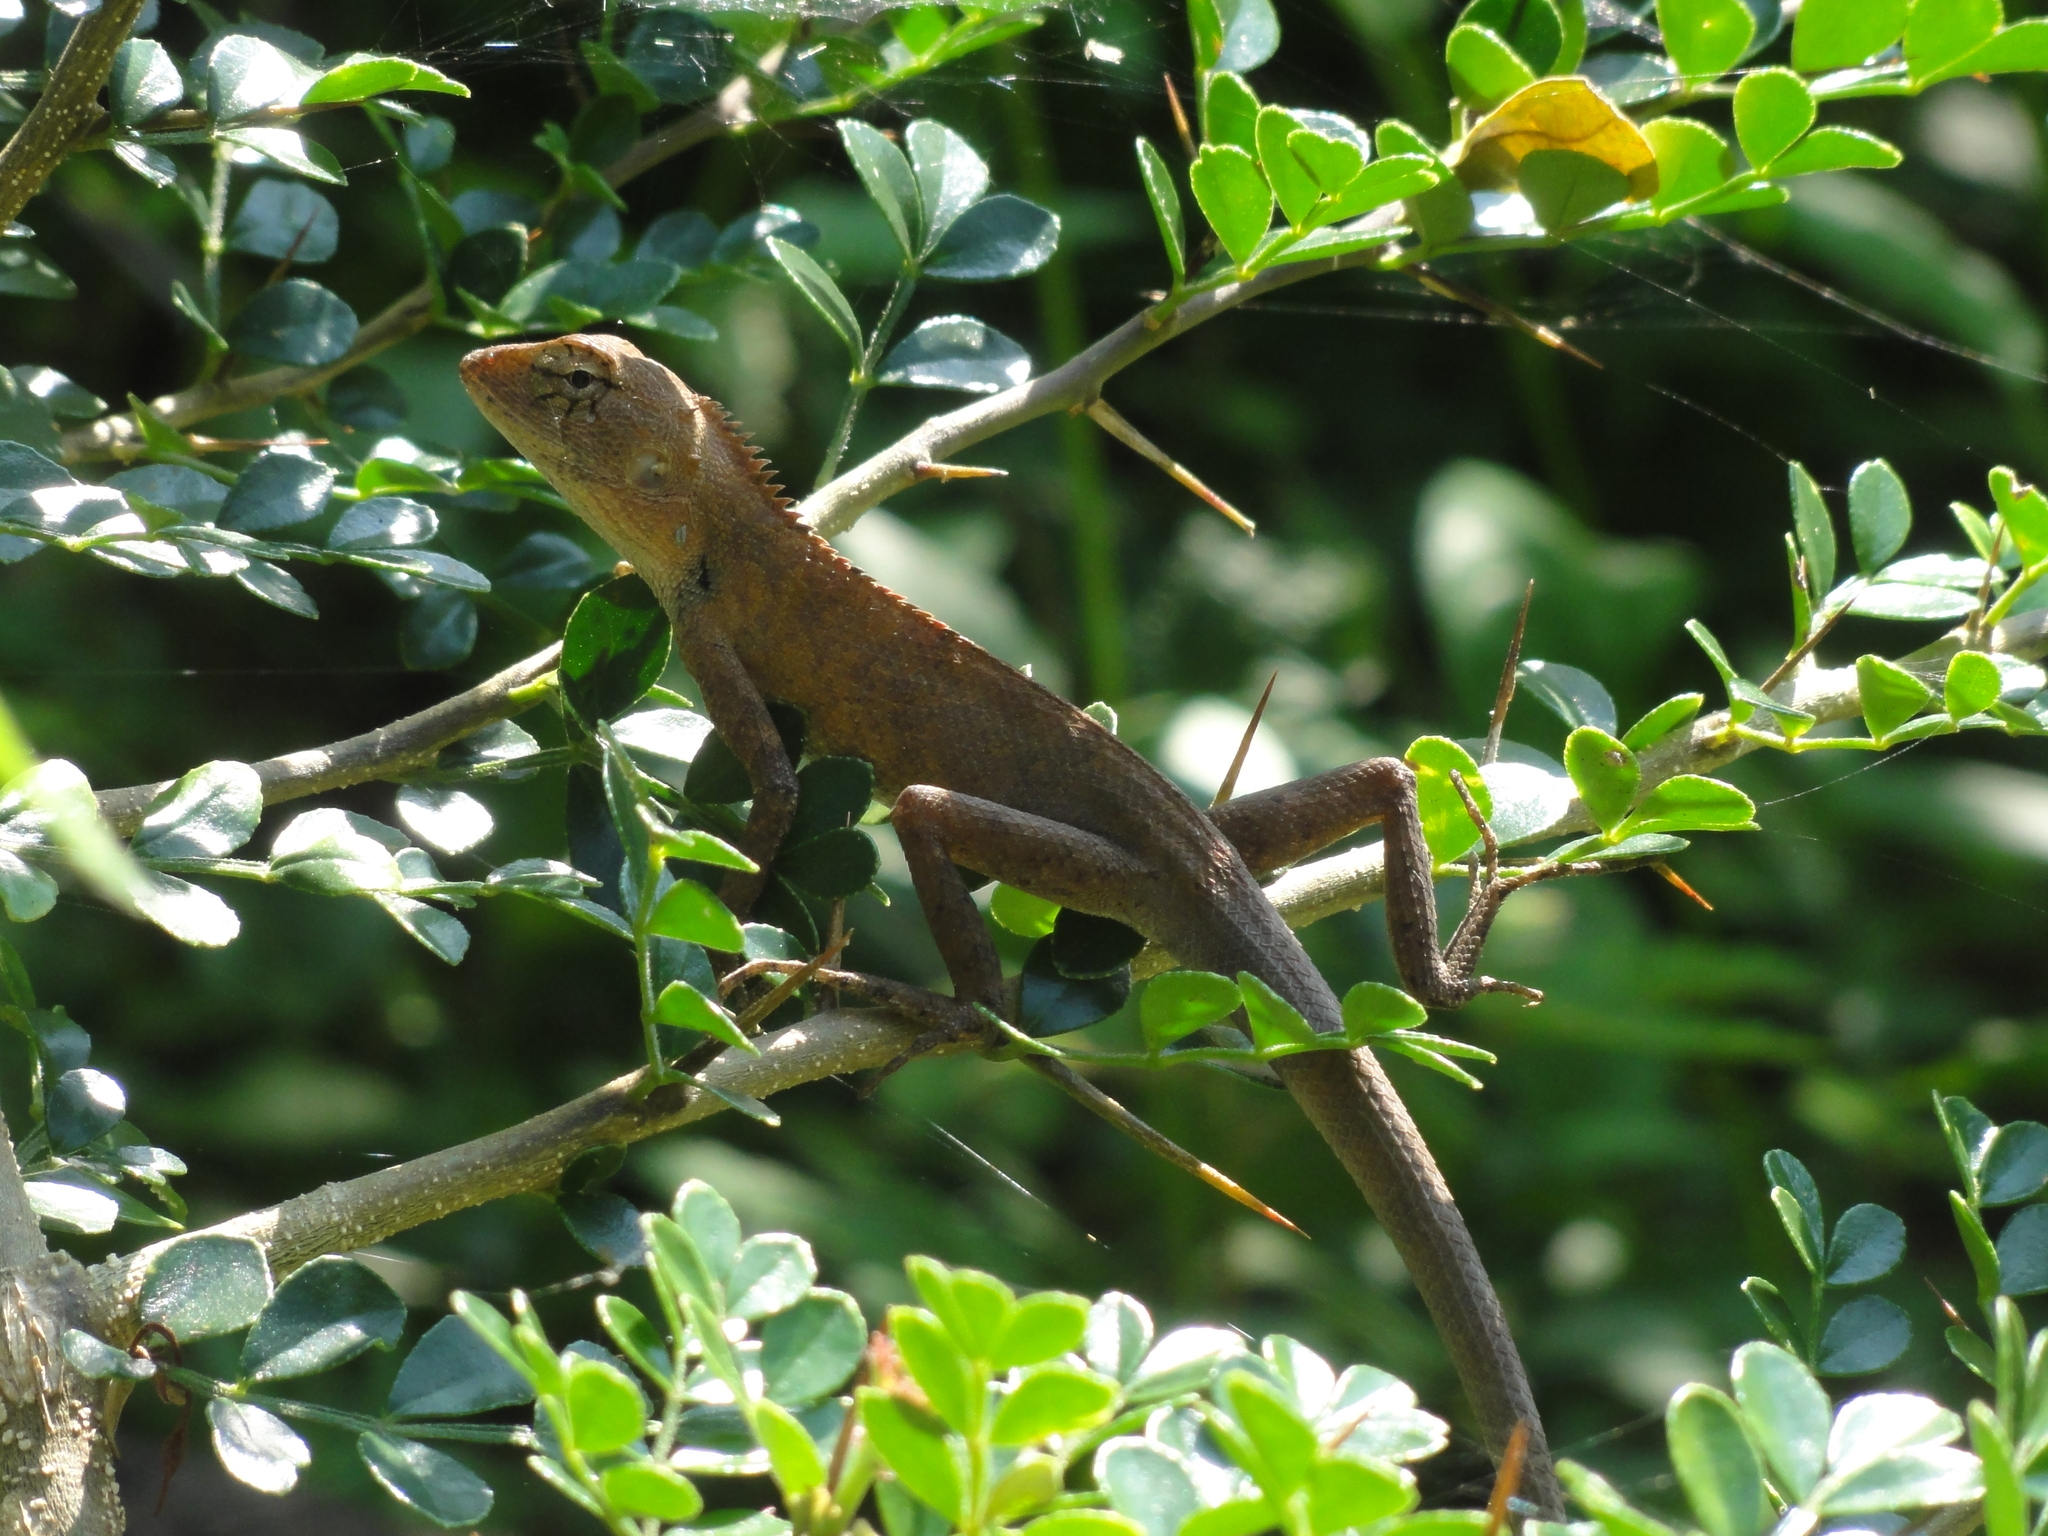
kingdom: Animalia
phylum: Chordata
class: Squamata
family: Agamidae
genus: Calotes
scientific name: Calotes versicolor
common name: Oriental garden lizard
